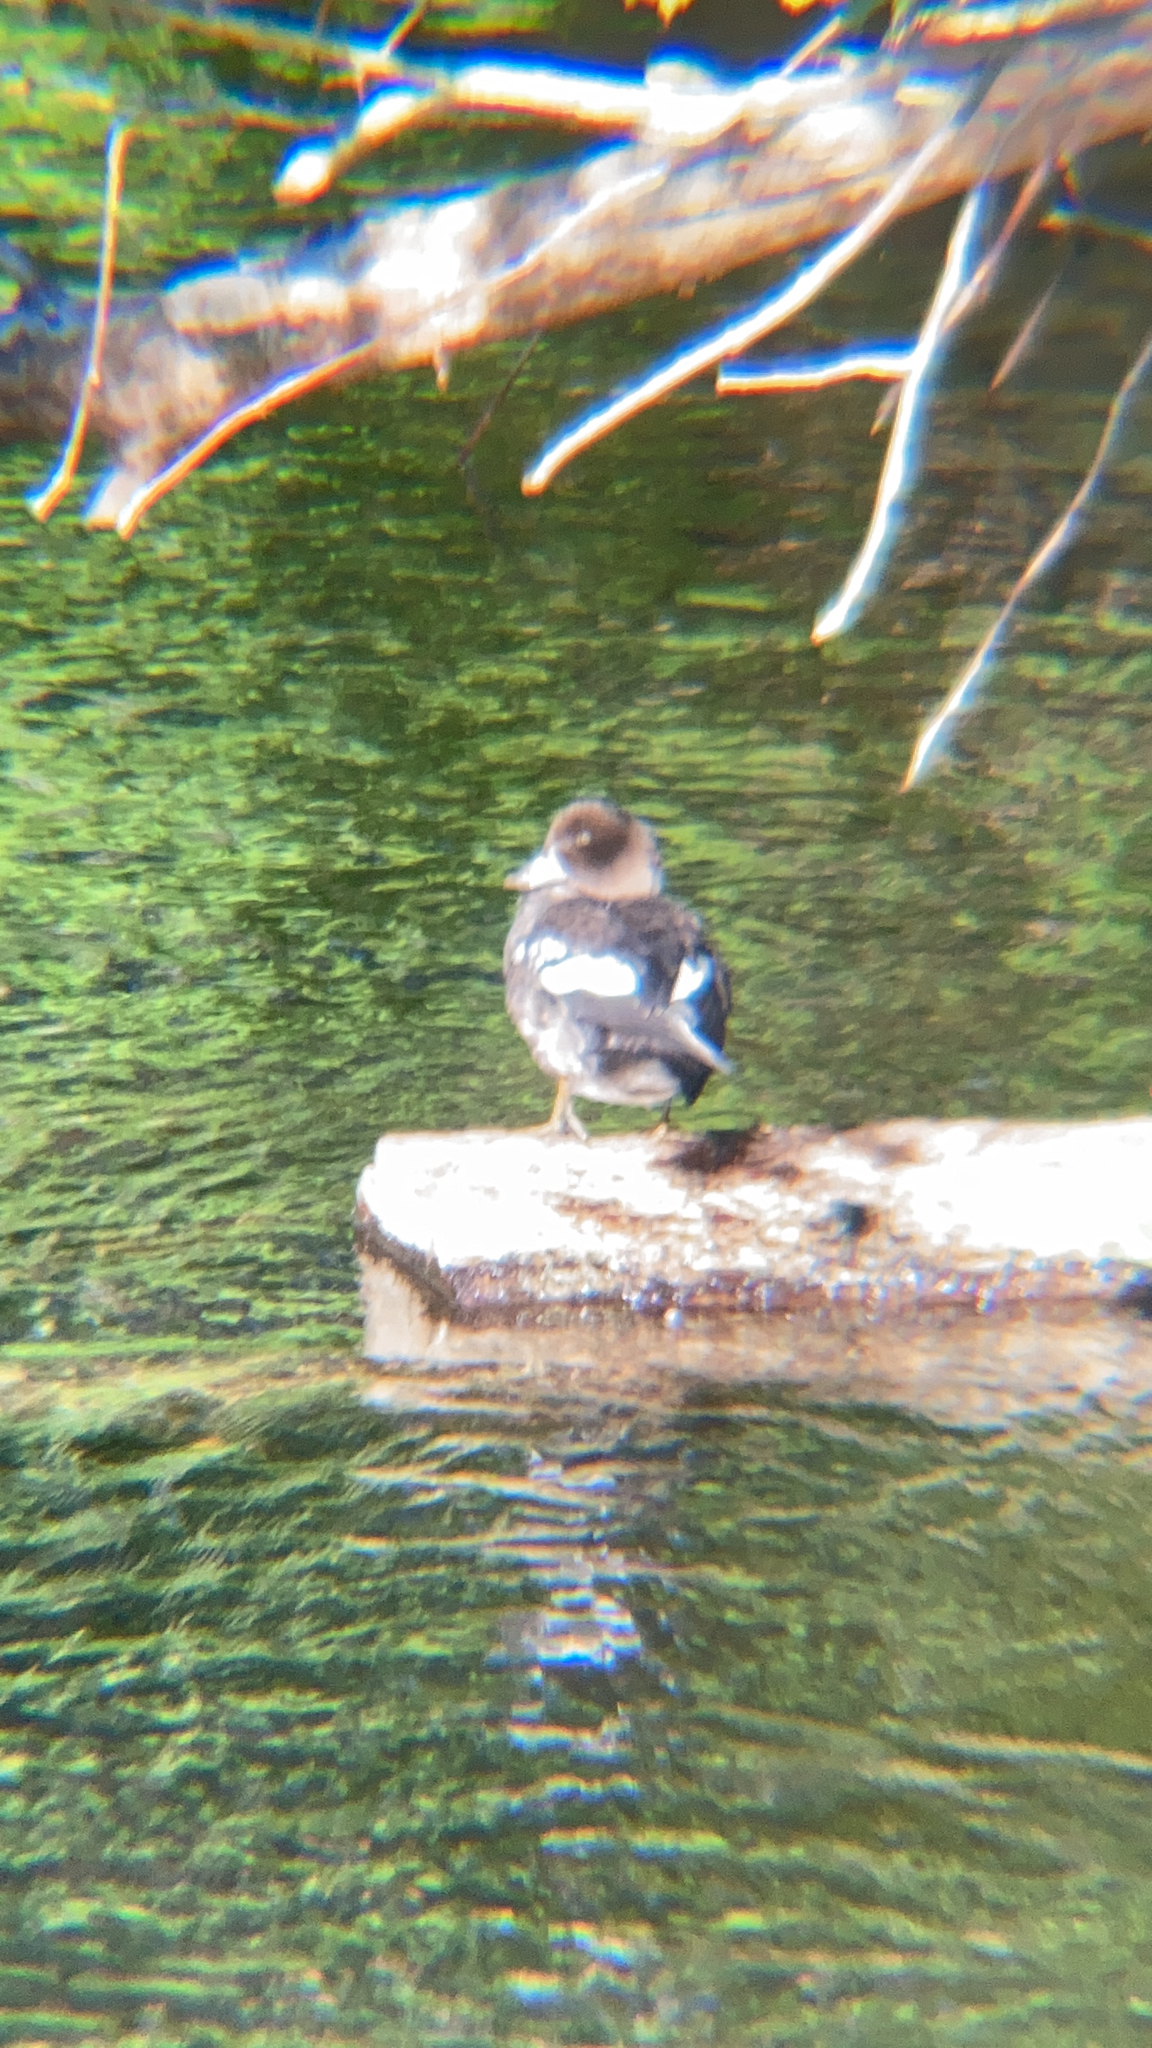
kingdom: Animalia
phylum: Chordata
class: Aves
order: Anseriformes
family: Anatidae
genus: Bucephala
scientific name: Bucephala clangula
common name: Common goldeneye
